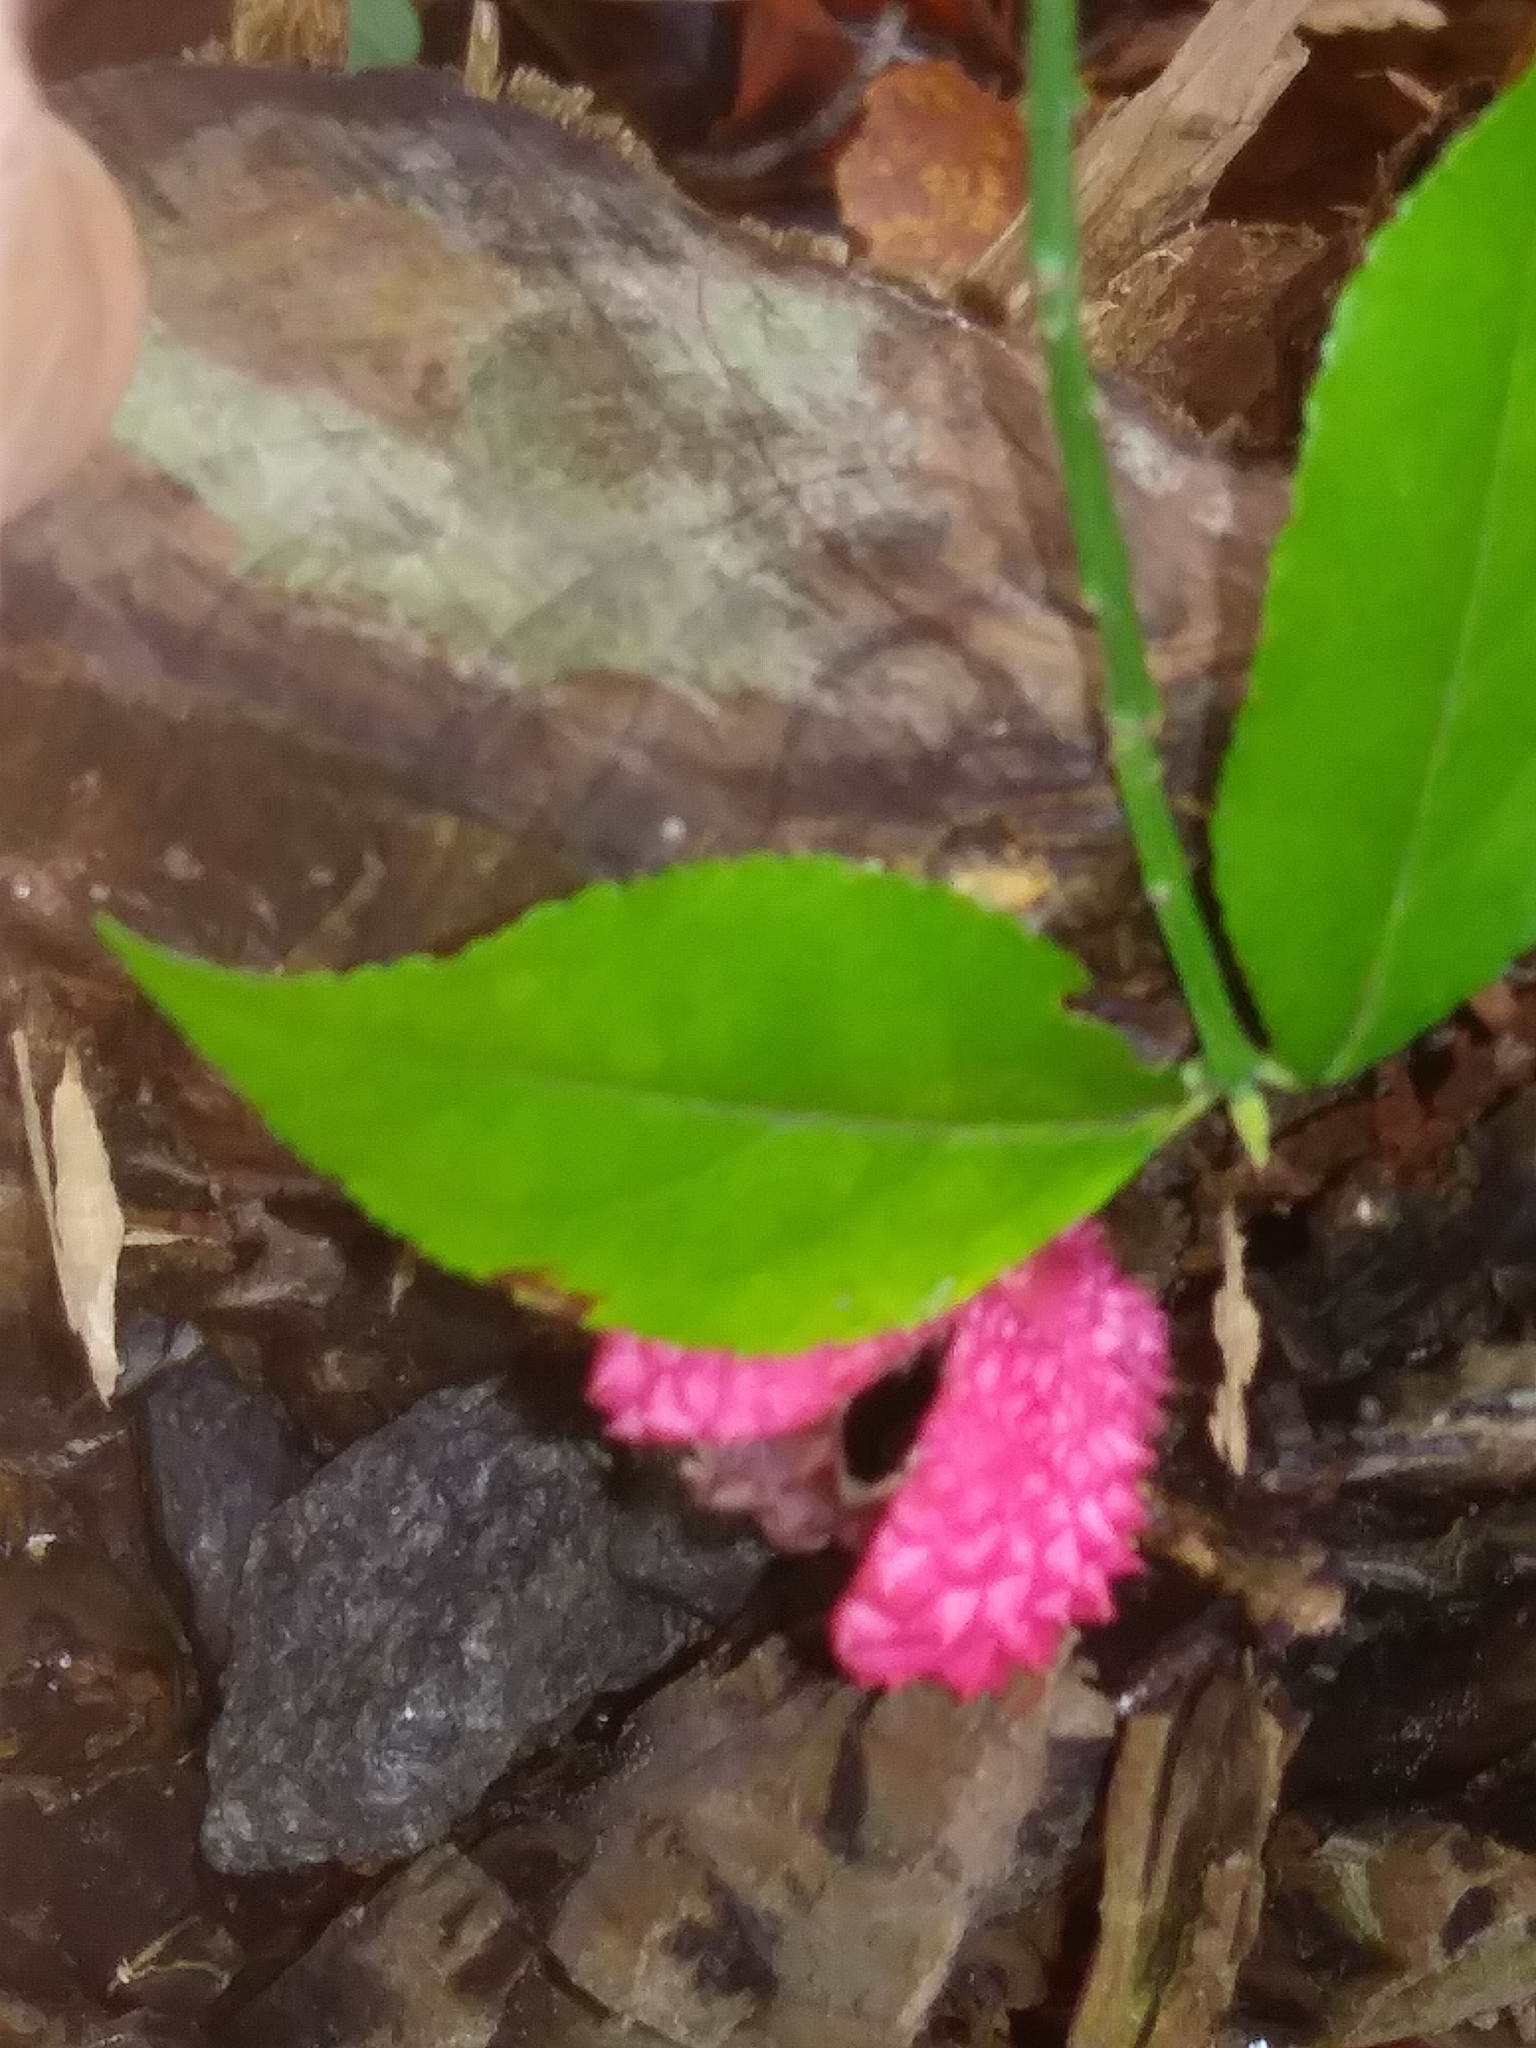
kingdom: Plantae
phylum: Tracheophyta
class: Magnoliopsida
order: Celastrales
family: Celastraceae
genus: Euonymus
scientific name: Euonymus americanus
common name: Bursting-heart
